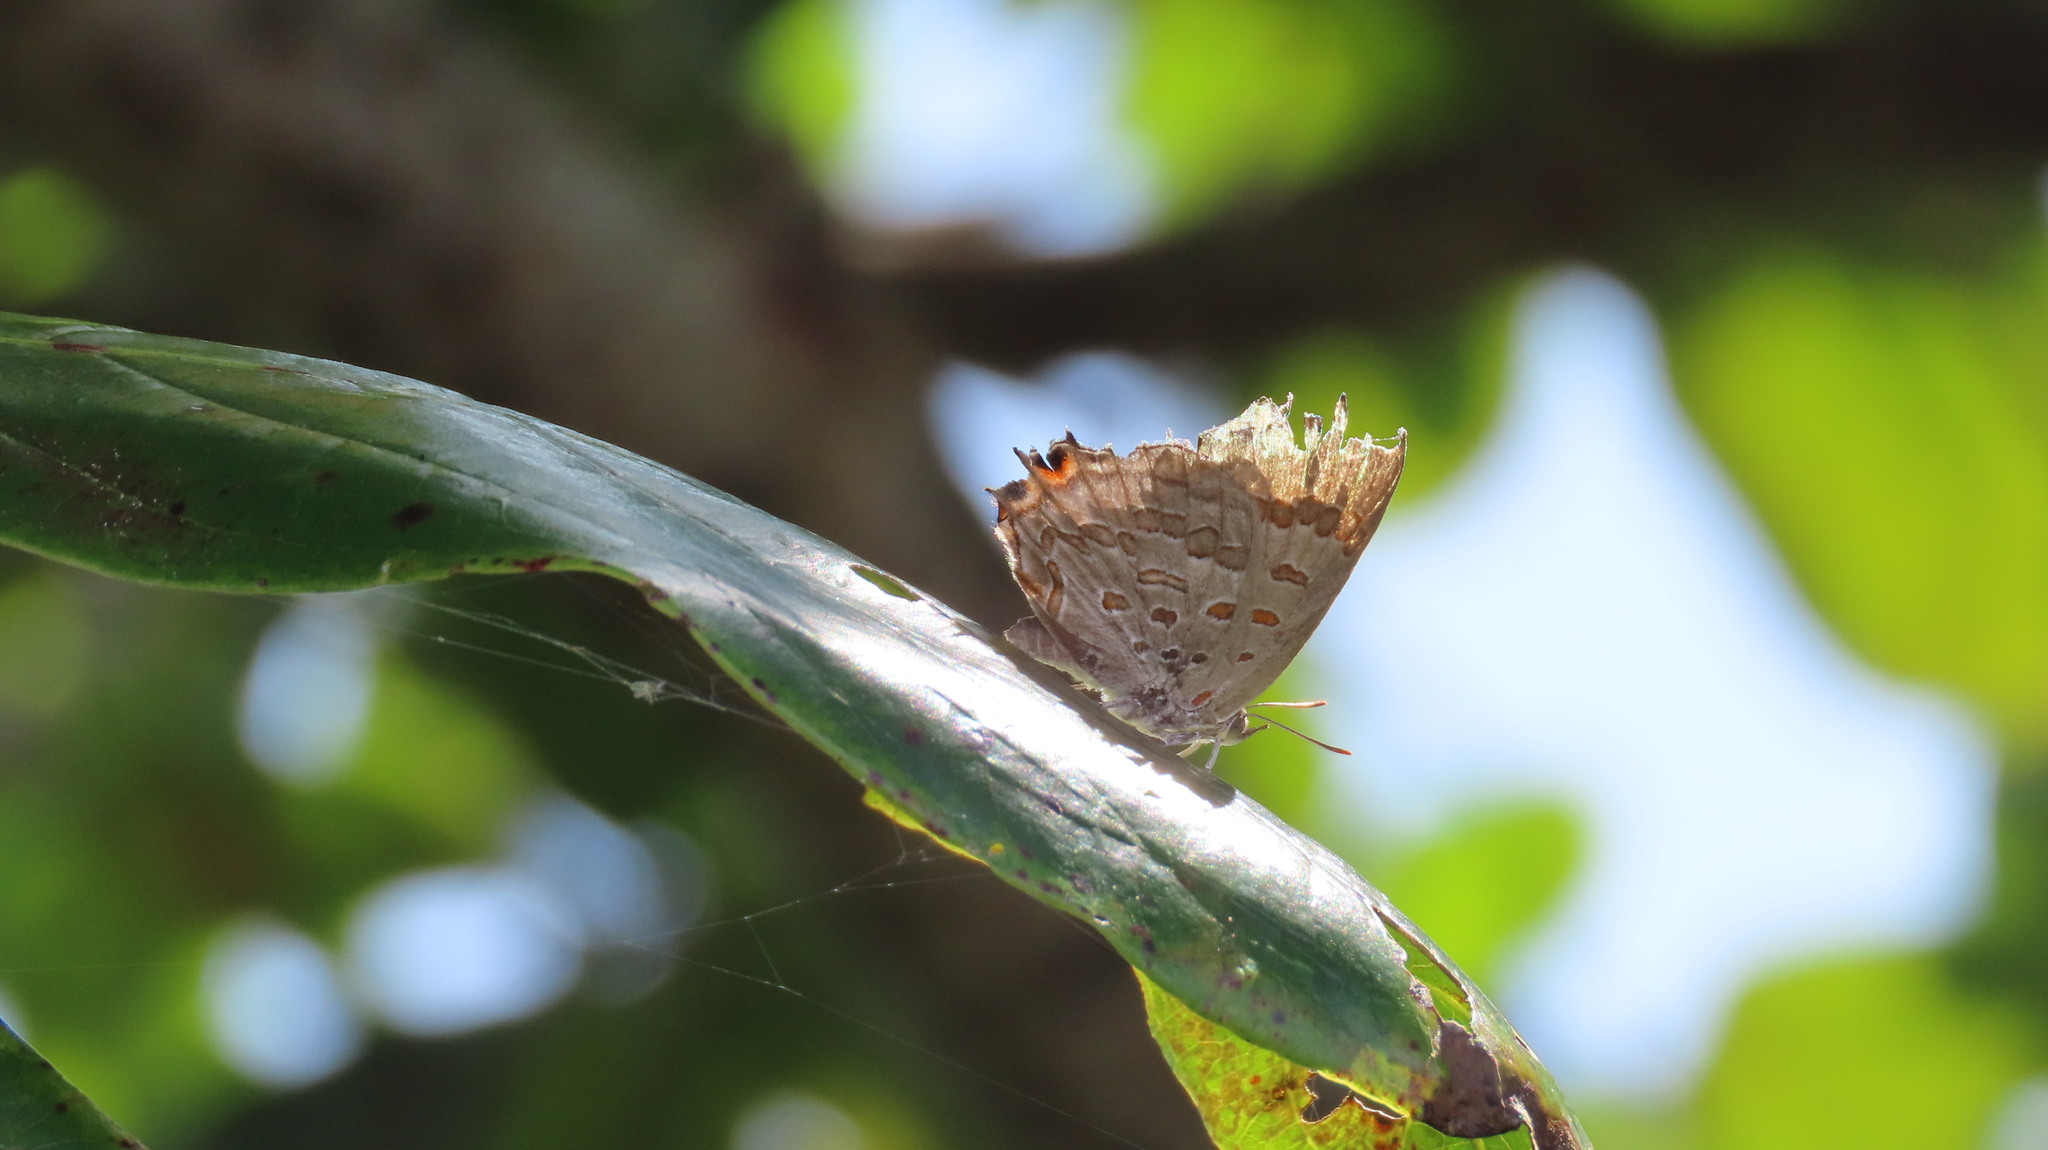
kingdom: Animalia
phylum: Arthropoda
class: Insecta
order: Lepidoptera
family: Lycaenidae
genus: Zesius
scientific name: Zesius chrysomallus
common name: Redspot
